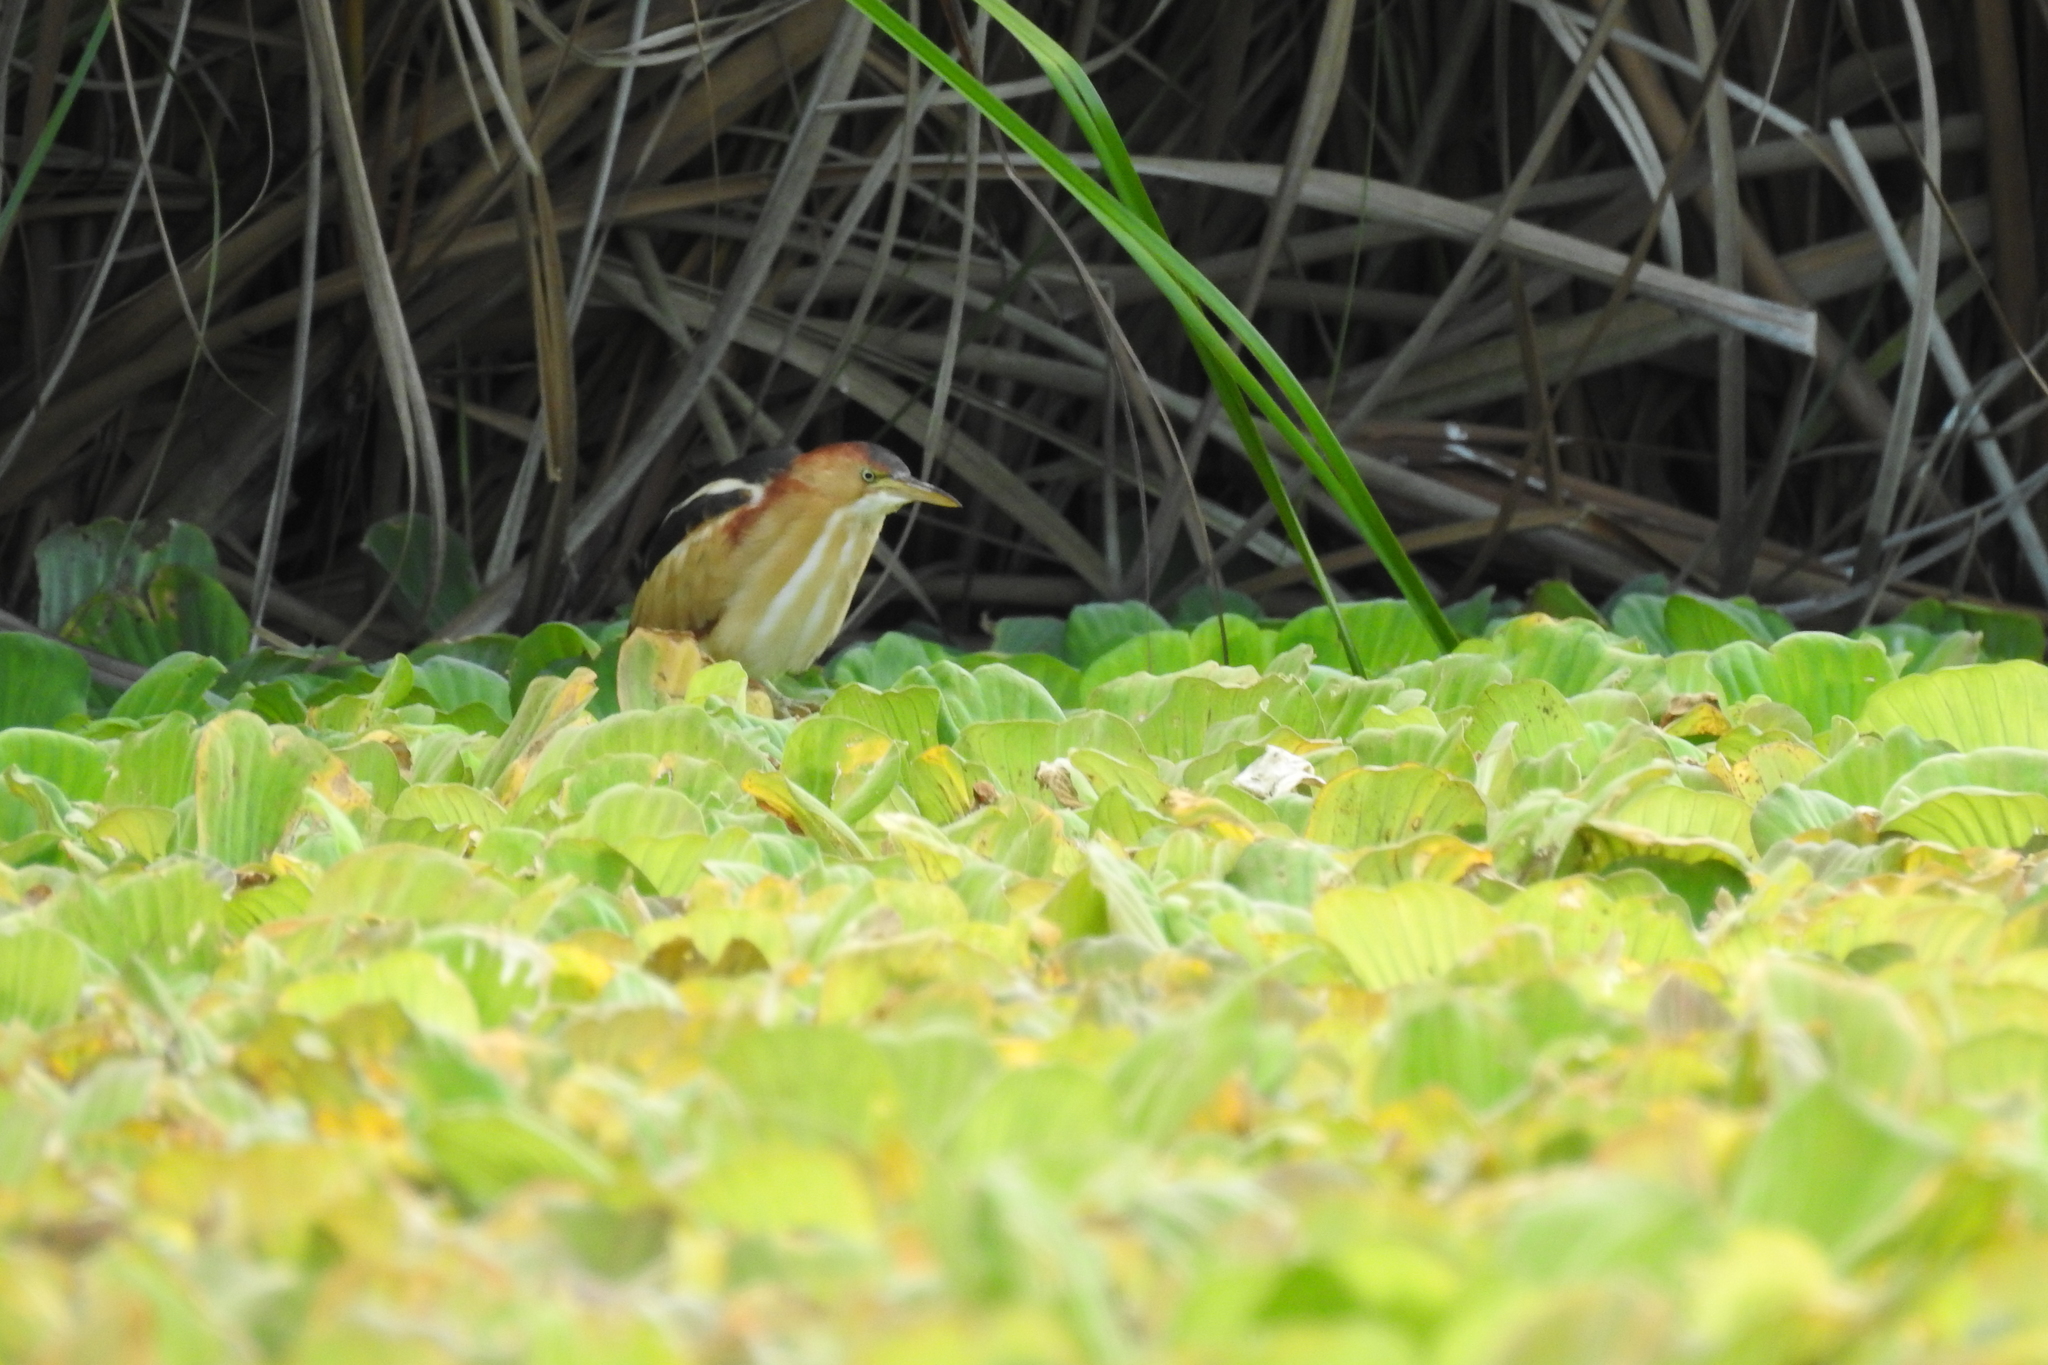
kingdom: Animalia
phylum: Chordata
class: Aves
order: Pelecaniformes
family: Ardeidae
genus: Ixobrychus
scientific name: Ixobrychus exilis
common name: Least bittern
